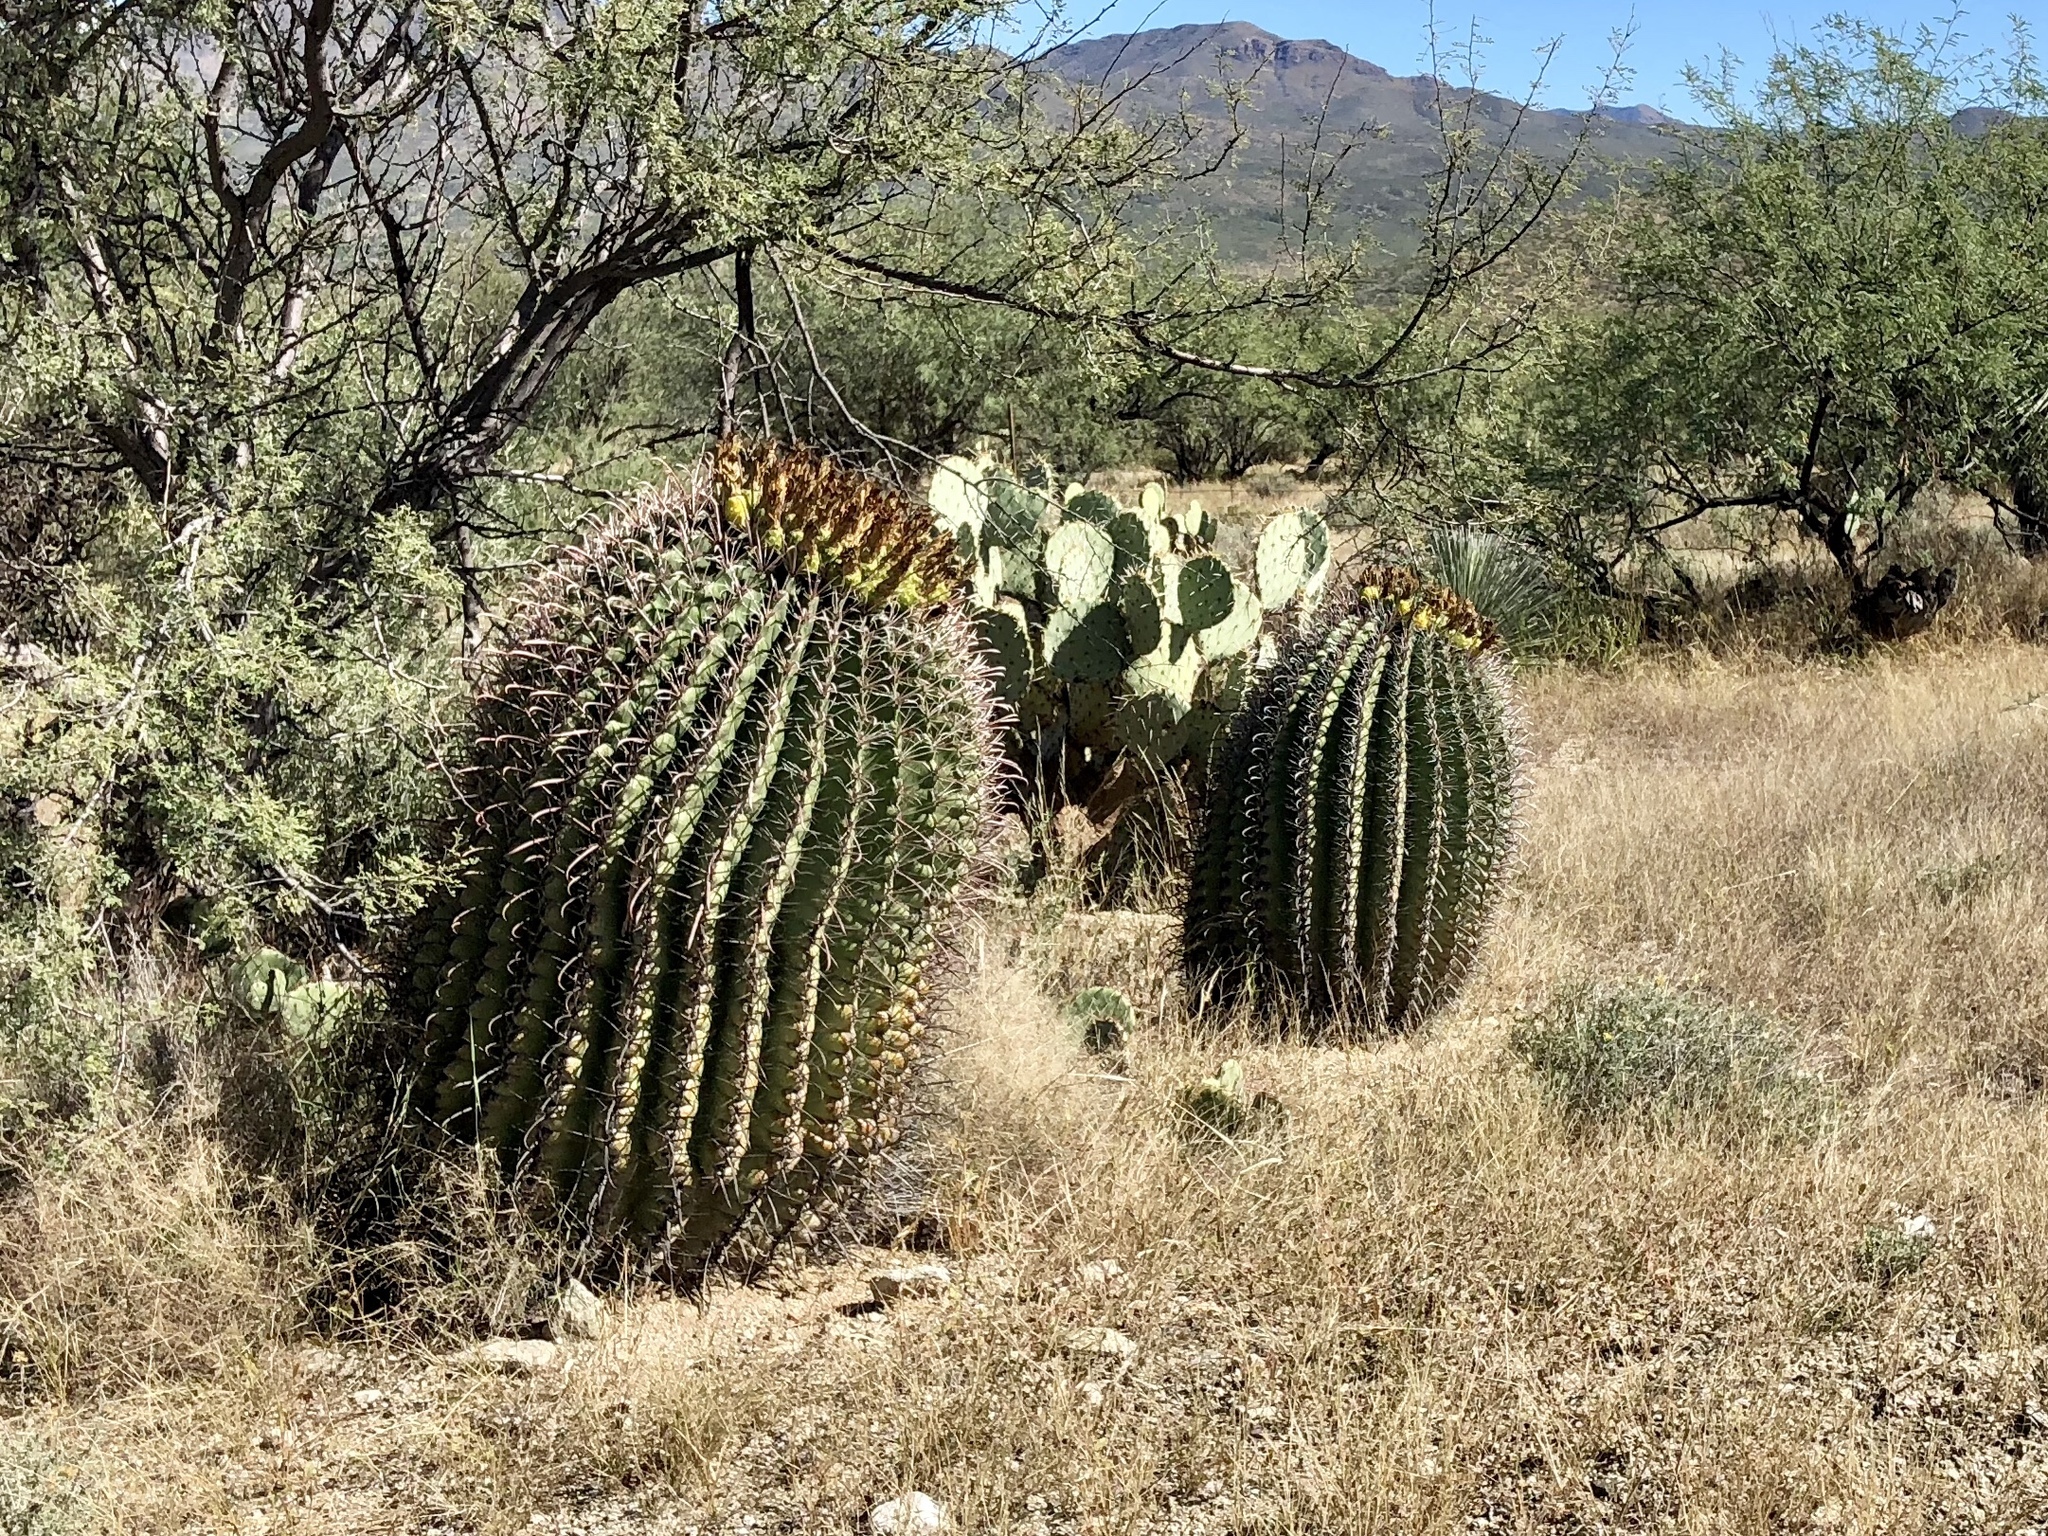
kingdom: Plantae
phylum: Tracheophyta
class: Magnoliopsida
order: Caryophyllales
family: Cactaceae
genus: Ferocactus
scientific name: Ferocactus wislizeni
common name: Candy barrel cactus
